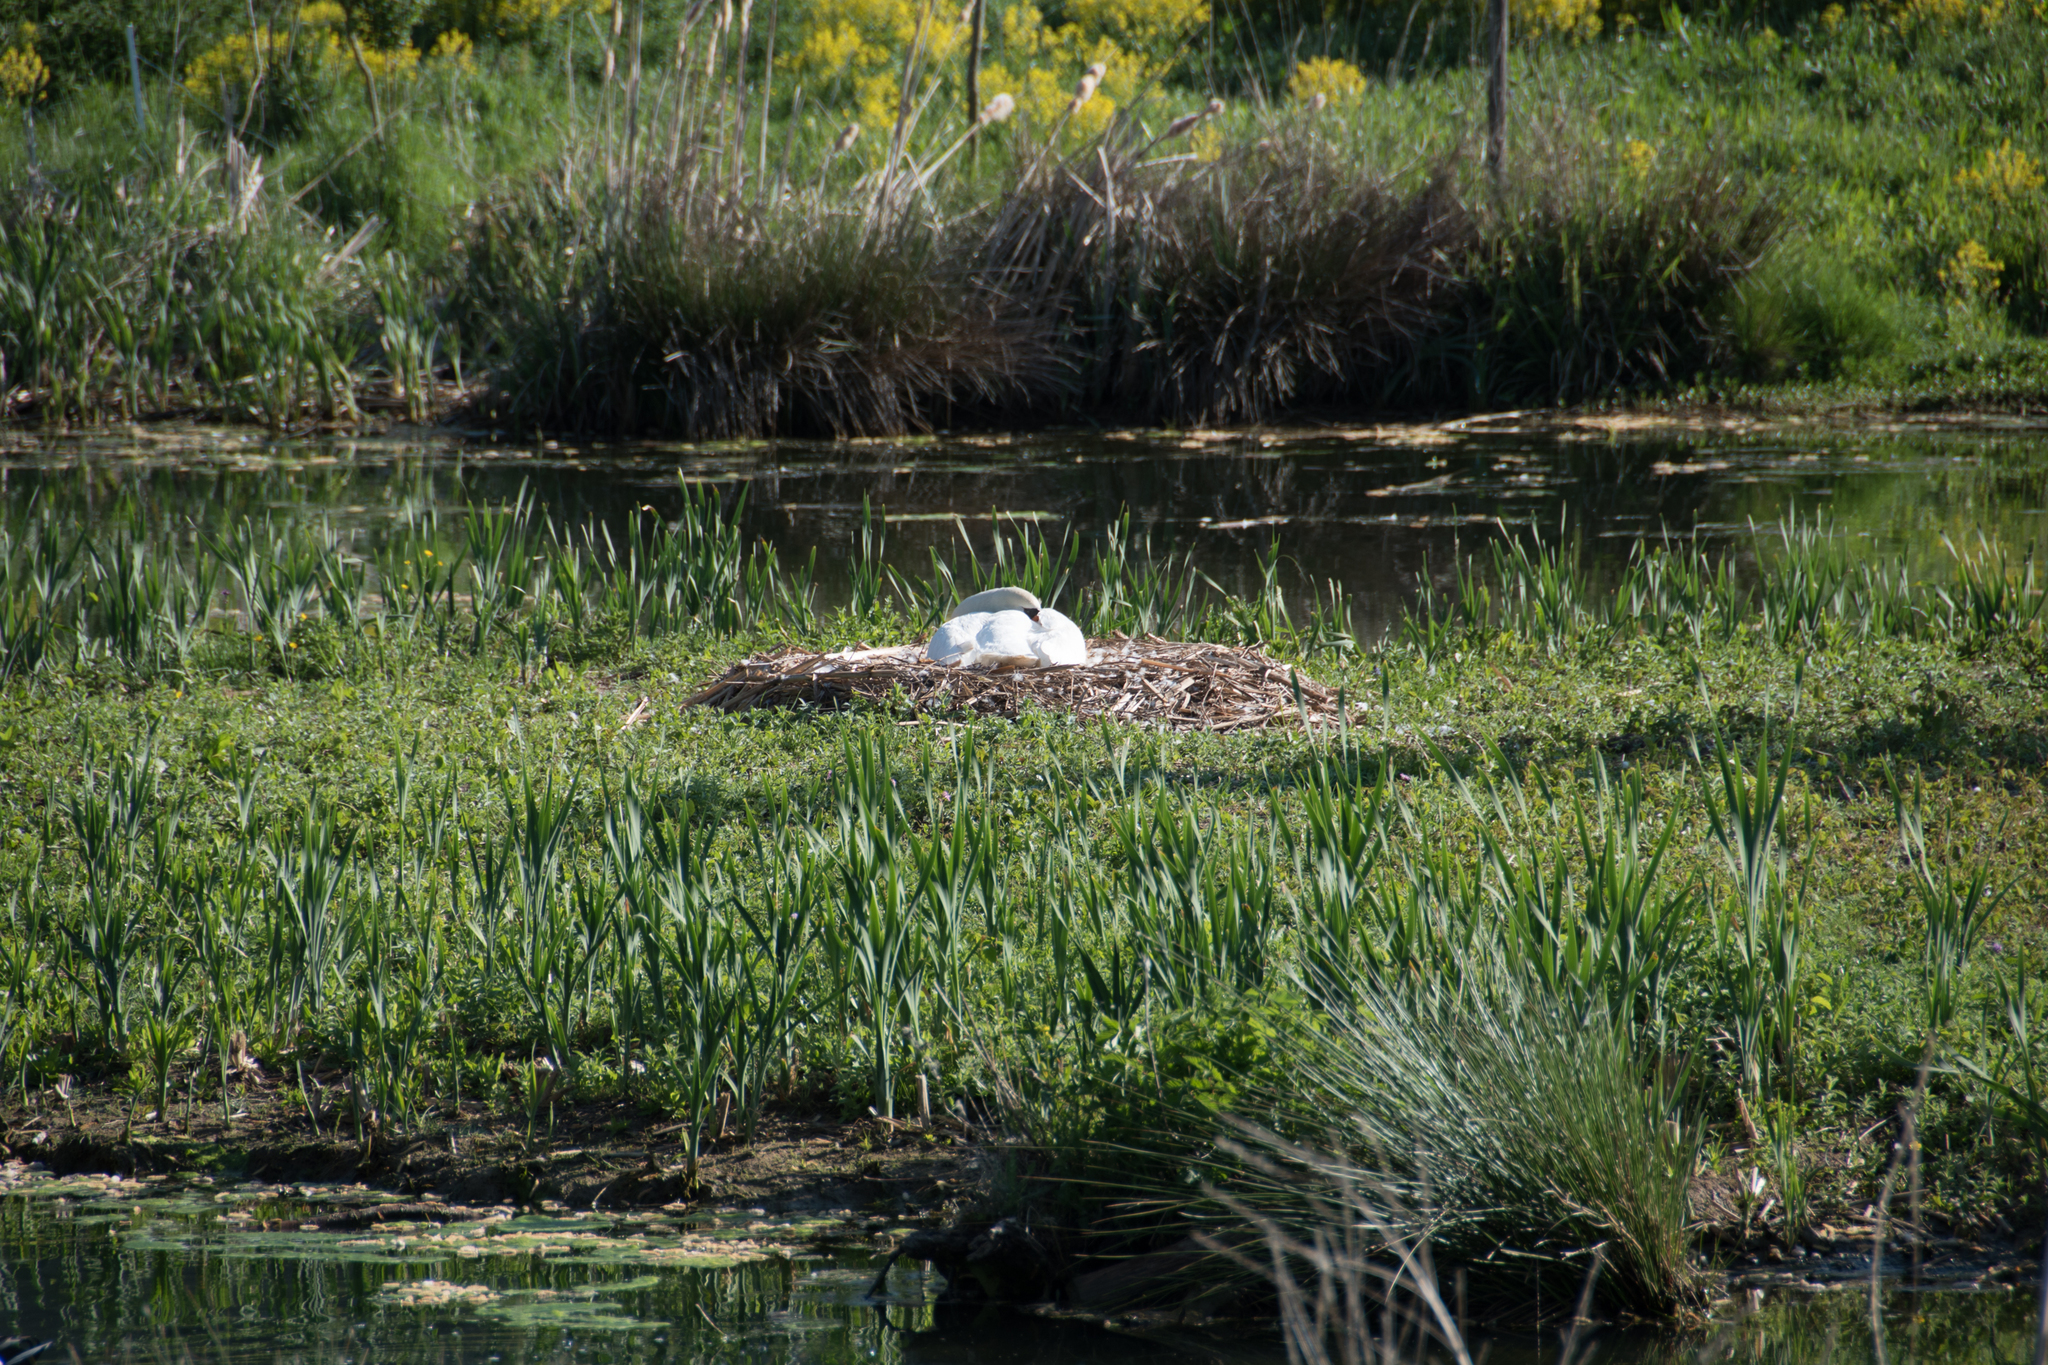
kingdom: Animalia
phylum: Chordata
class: Aves
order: Anseriformes
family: Anatidae
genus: Cygnus
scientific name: Cygnus olor
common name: Mute swan
